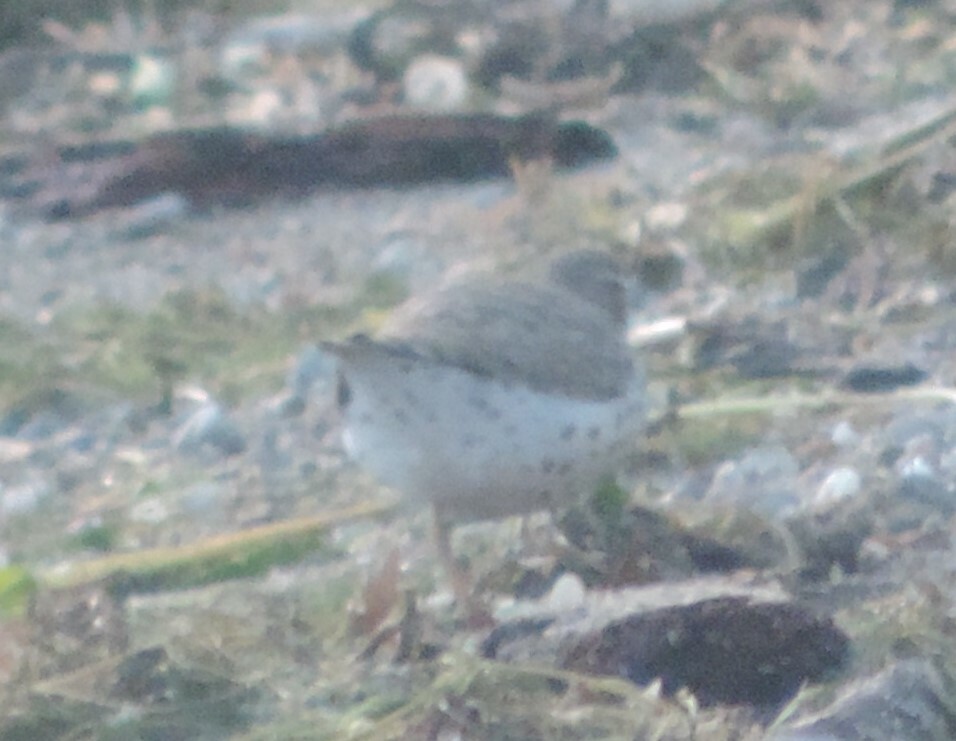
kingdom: Animalia
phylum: Chordata
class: Aves
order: Charadriiformes
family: Scolopacidae
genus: Actitis
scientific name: Actitis macularius
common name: Spotted sandpiper
